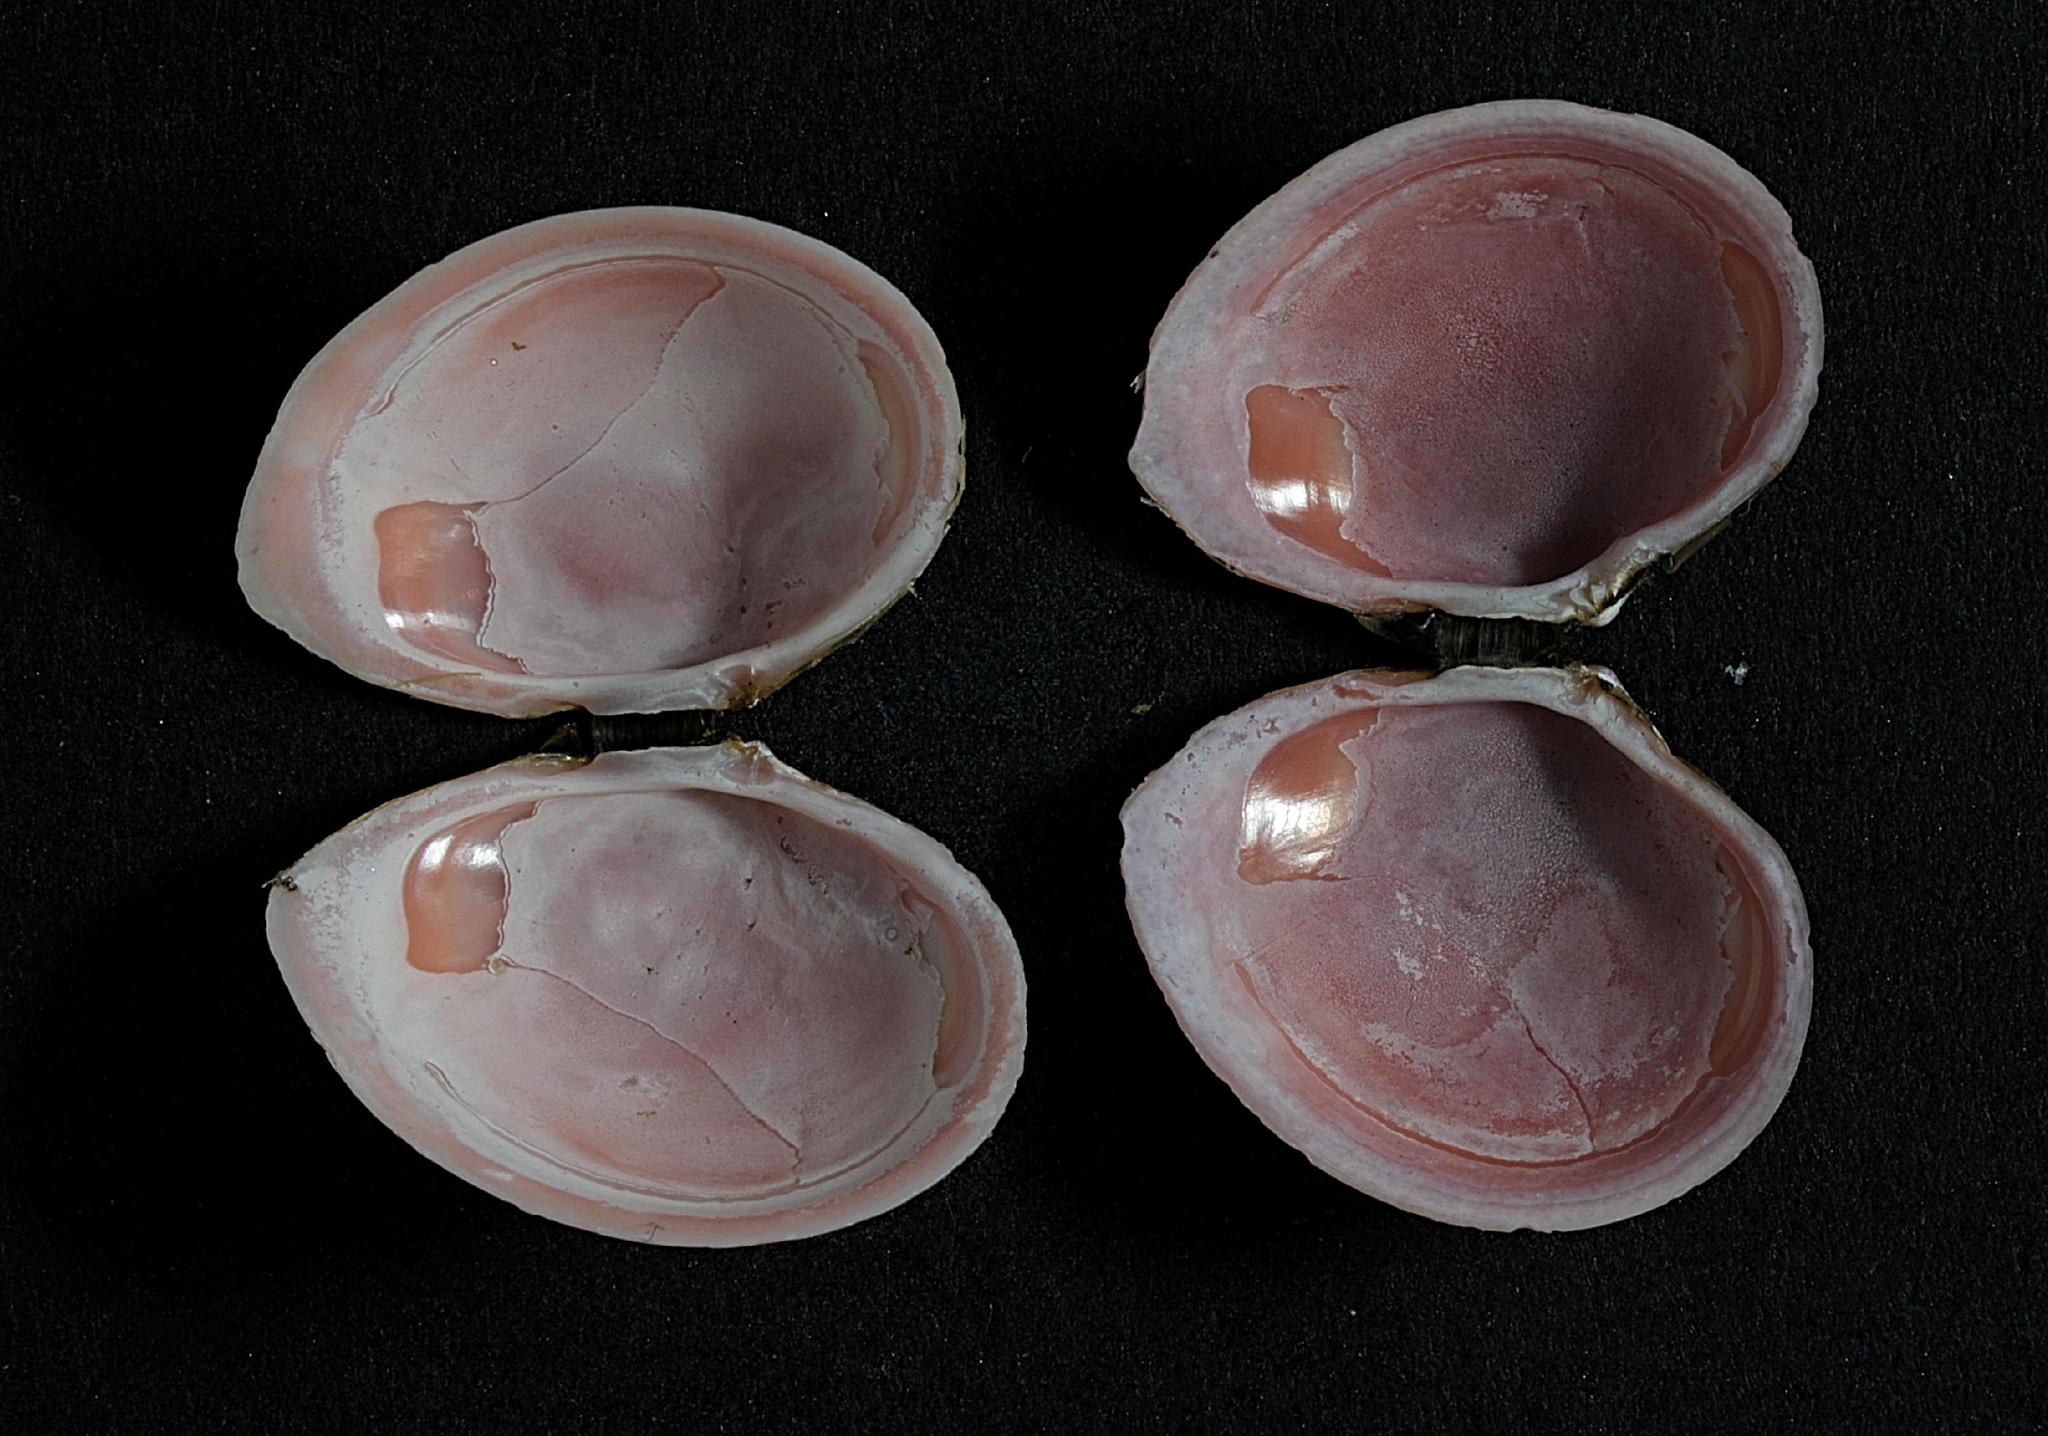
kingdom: Animalia
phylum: Mollusca
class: Bivalvia
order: Cardiida
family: Tellinidae
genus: Macoma
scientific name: Macoma balthica
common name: Baltic tellin
